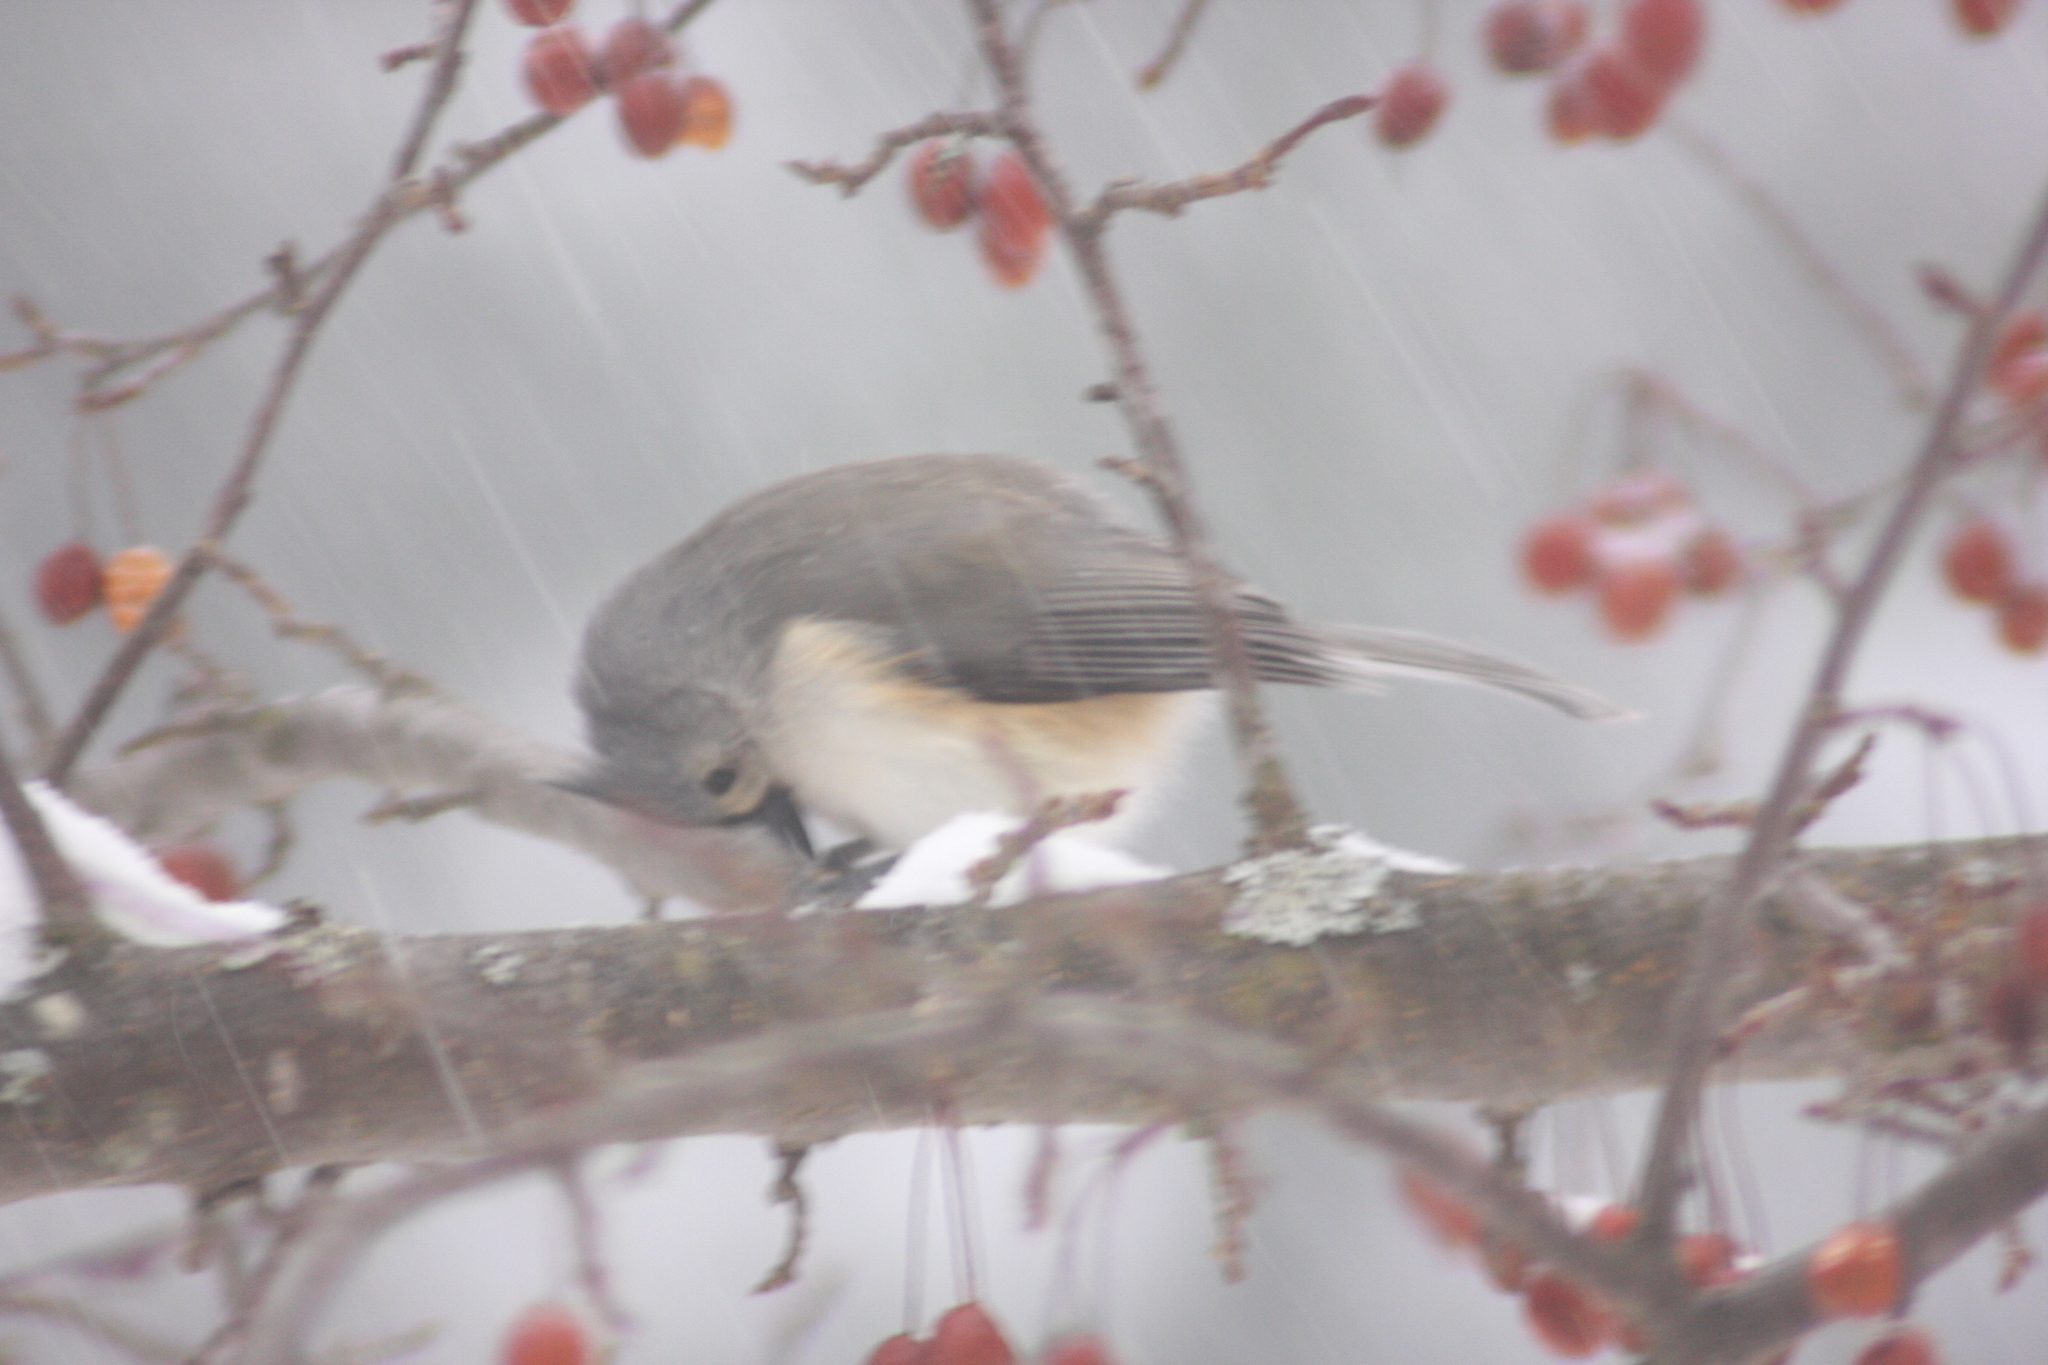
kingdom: Animalia
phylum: Chordata
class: Aves
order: Passeriformes
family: Paridae
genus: Baeolophus
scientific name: Baeolophus bicolor
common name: Tufted titmouse
